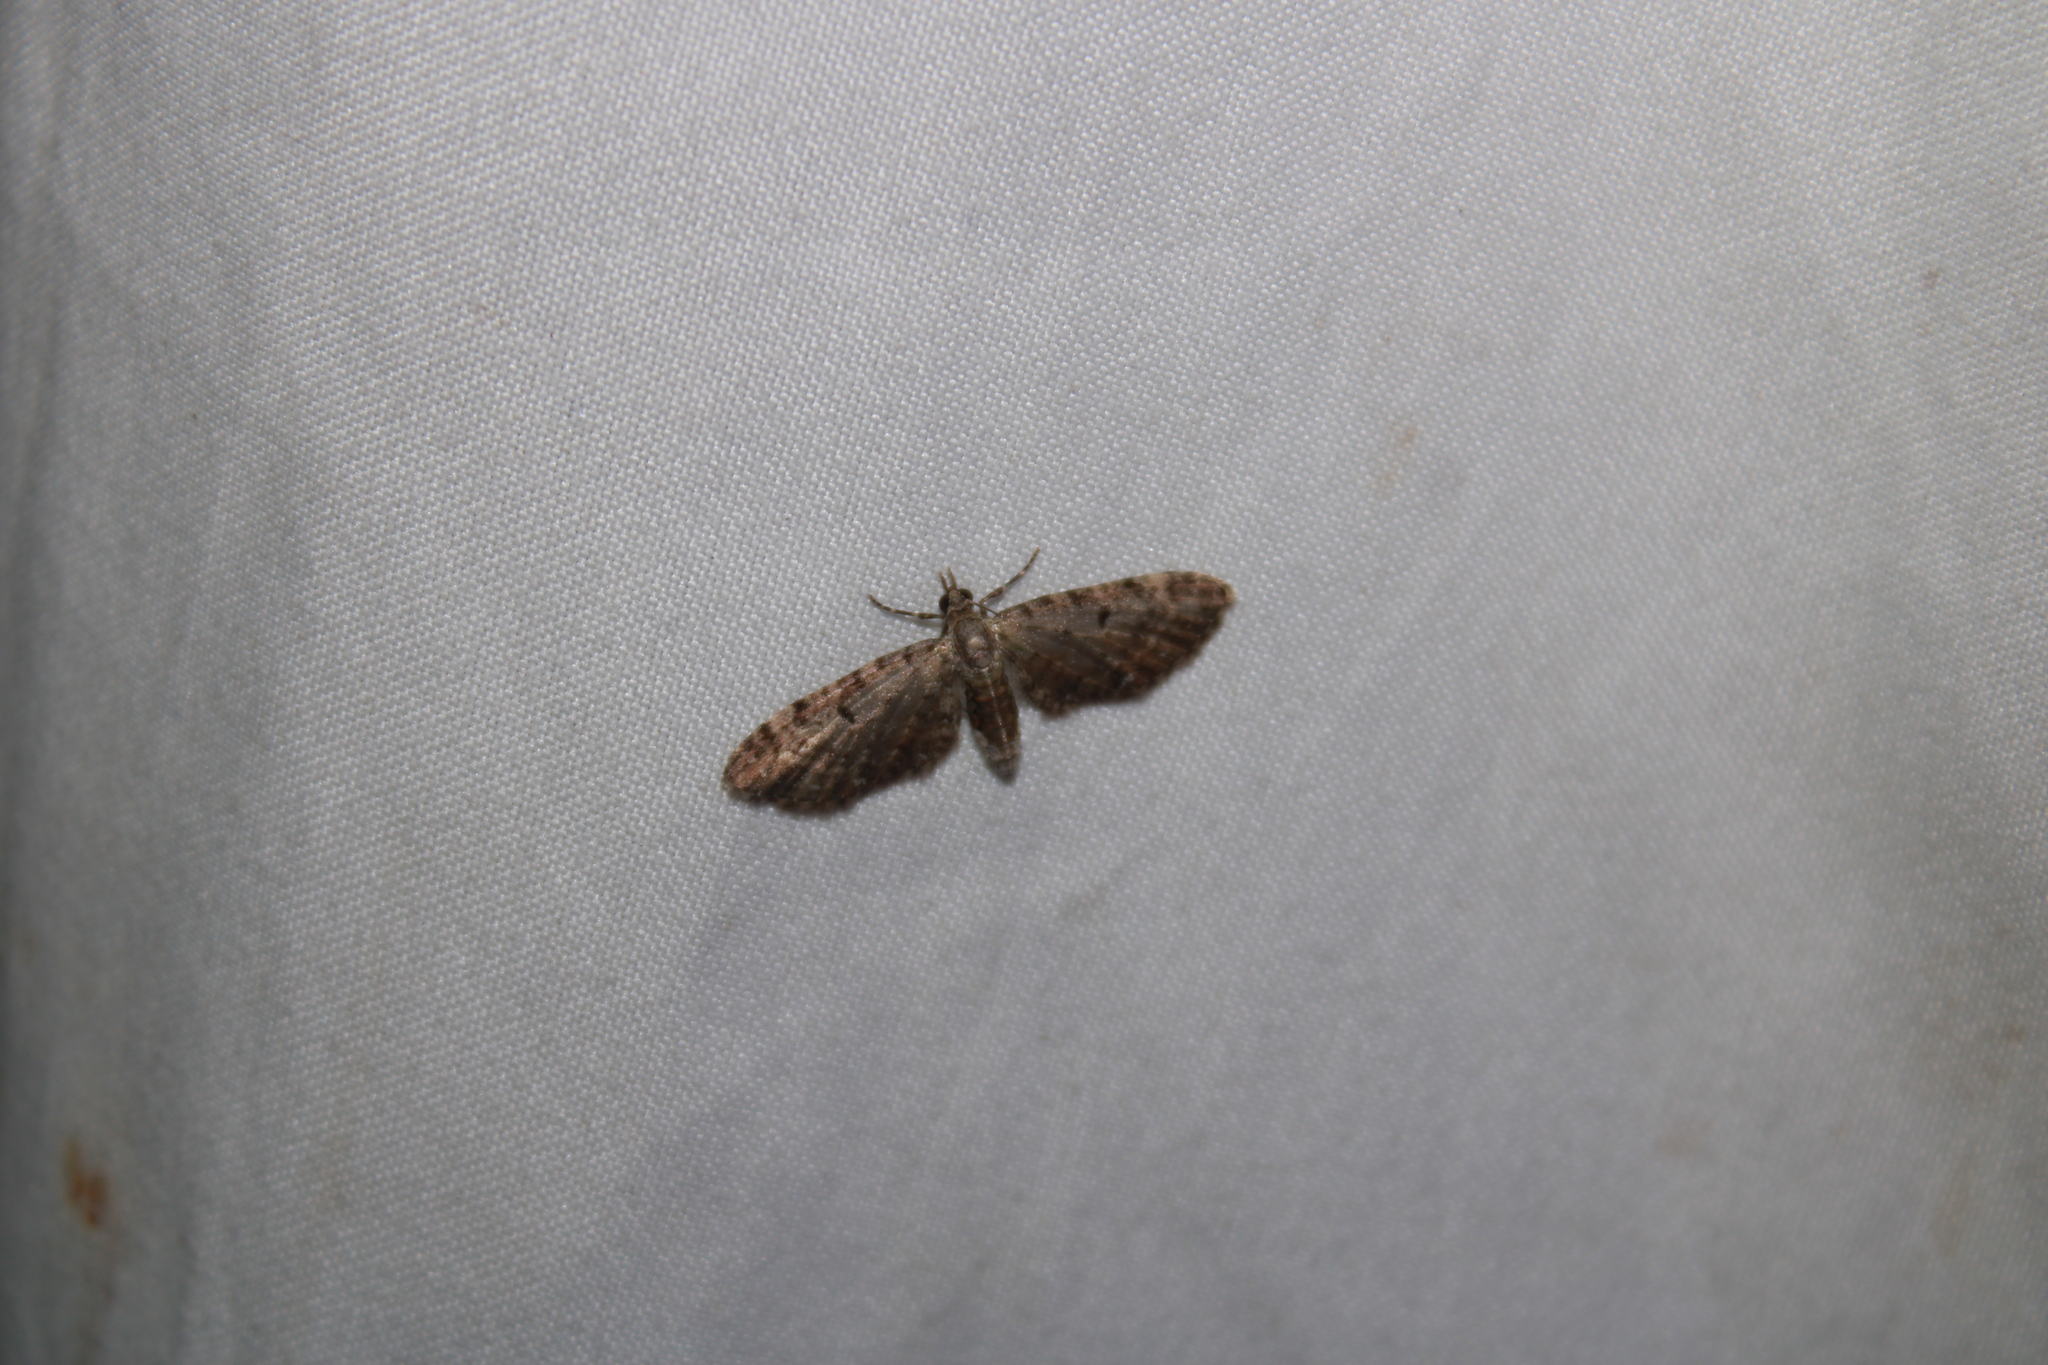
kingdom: Animalia
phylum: Arthropoda
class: Insecta
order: Lepidoptera
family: Geometridae
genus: Eupithecia
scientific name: Eupithecia jejunata
